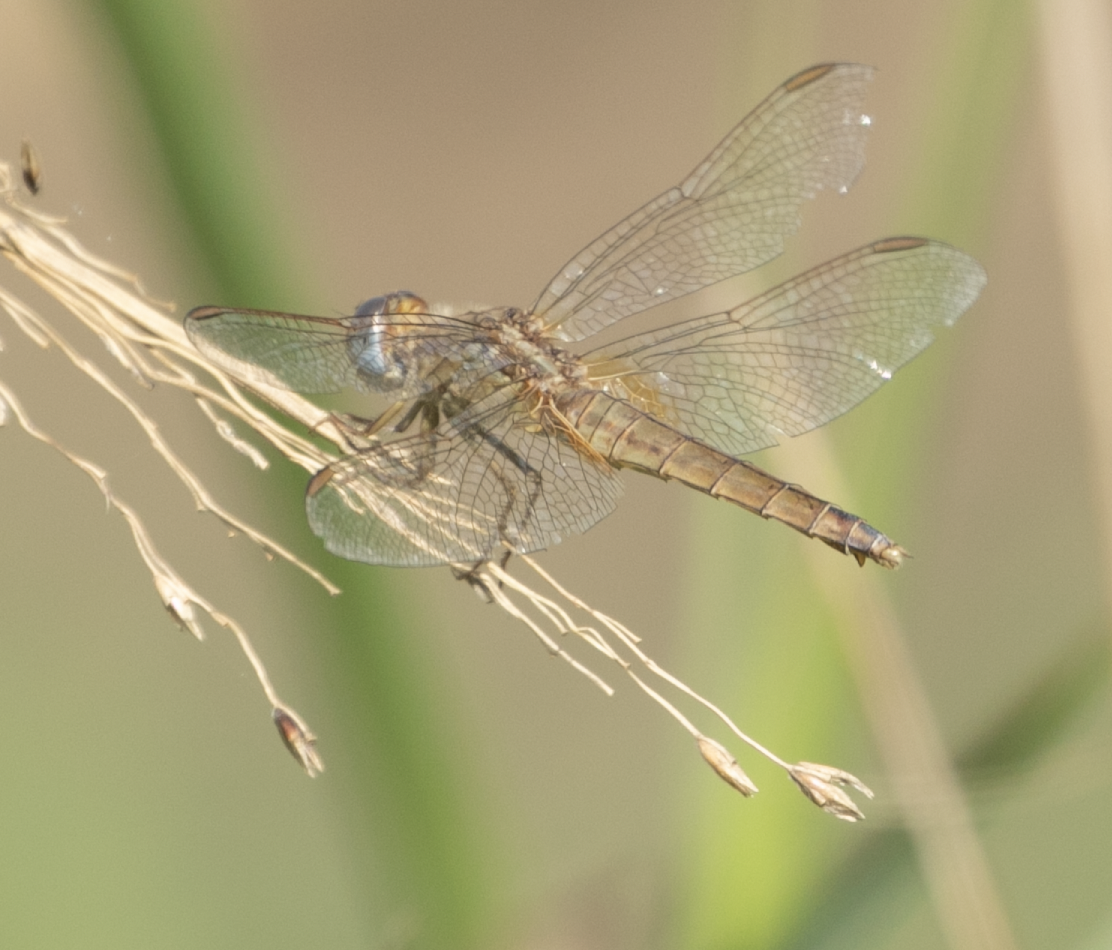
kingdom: Animalia
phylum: Arthropoda
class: Insecta
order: Odonata
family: Libellulidae
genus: Crocothemis
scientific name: Crocothemis erythraea
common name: Scarlet dragonfly
